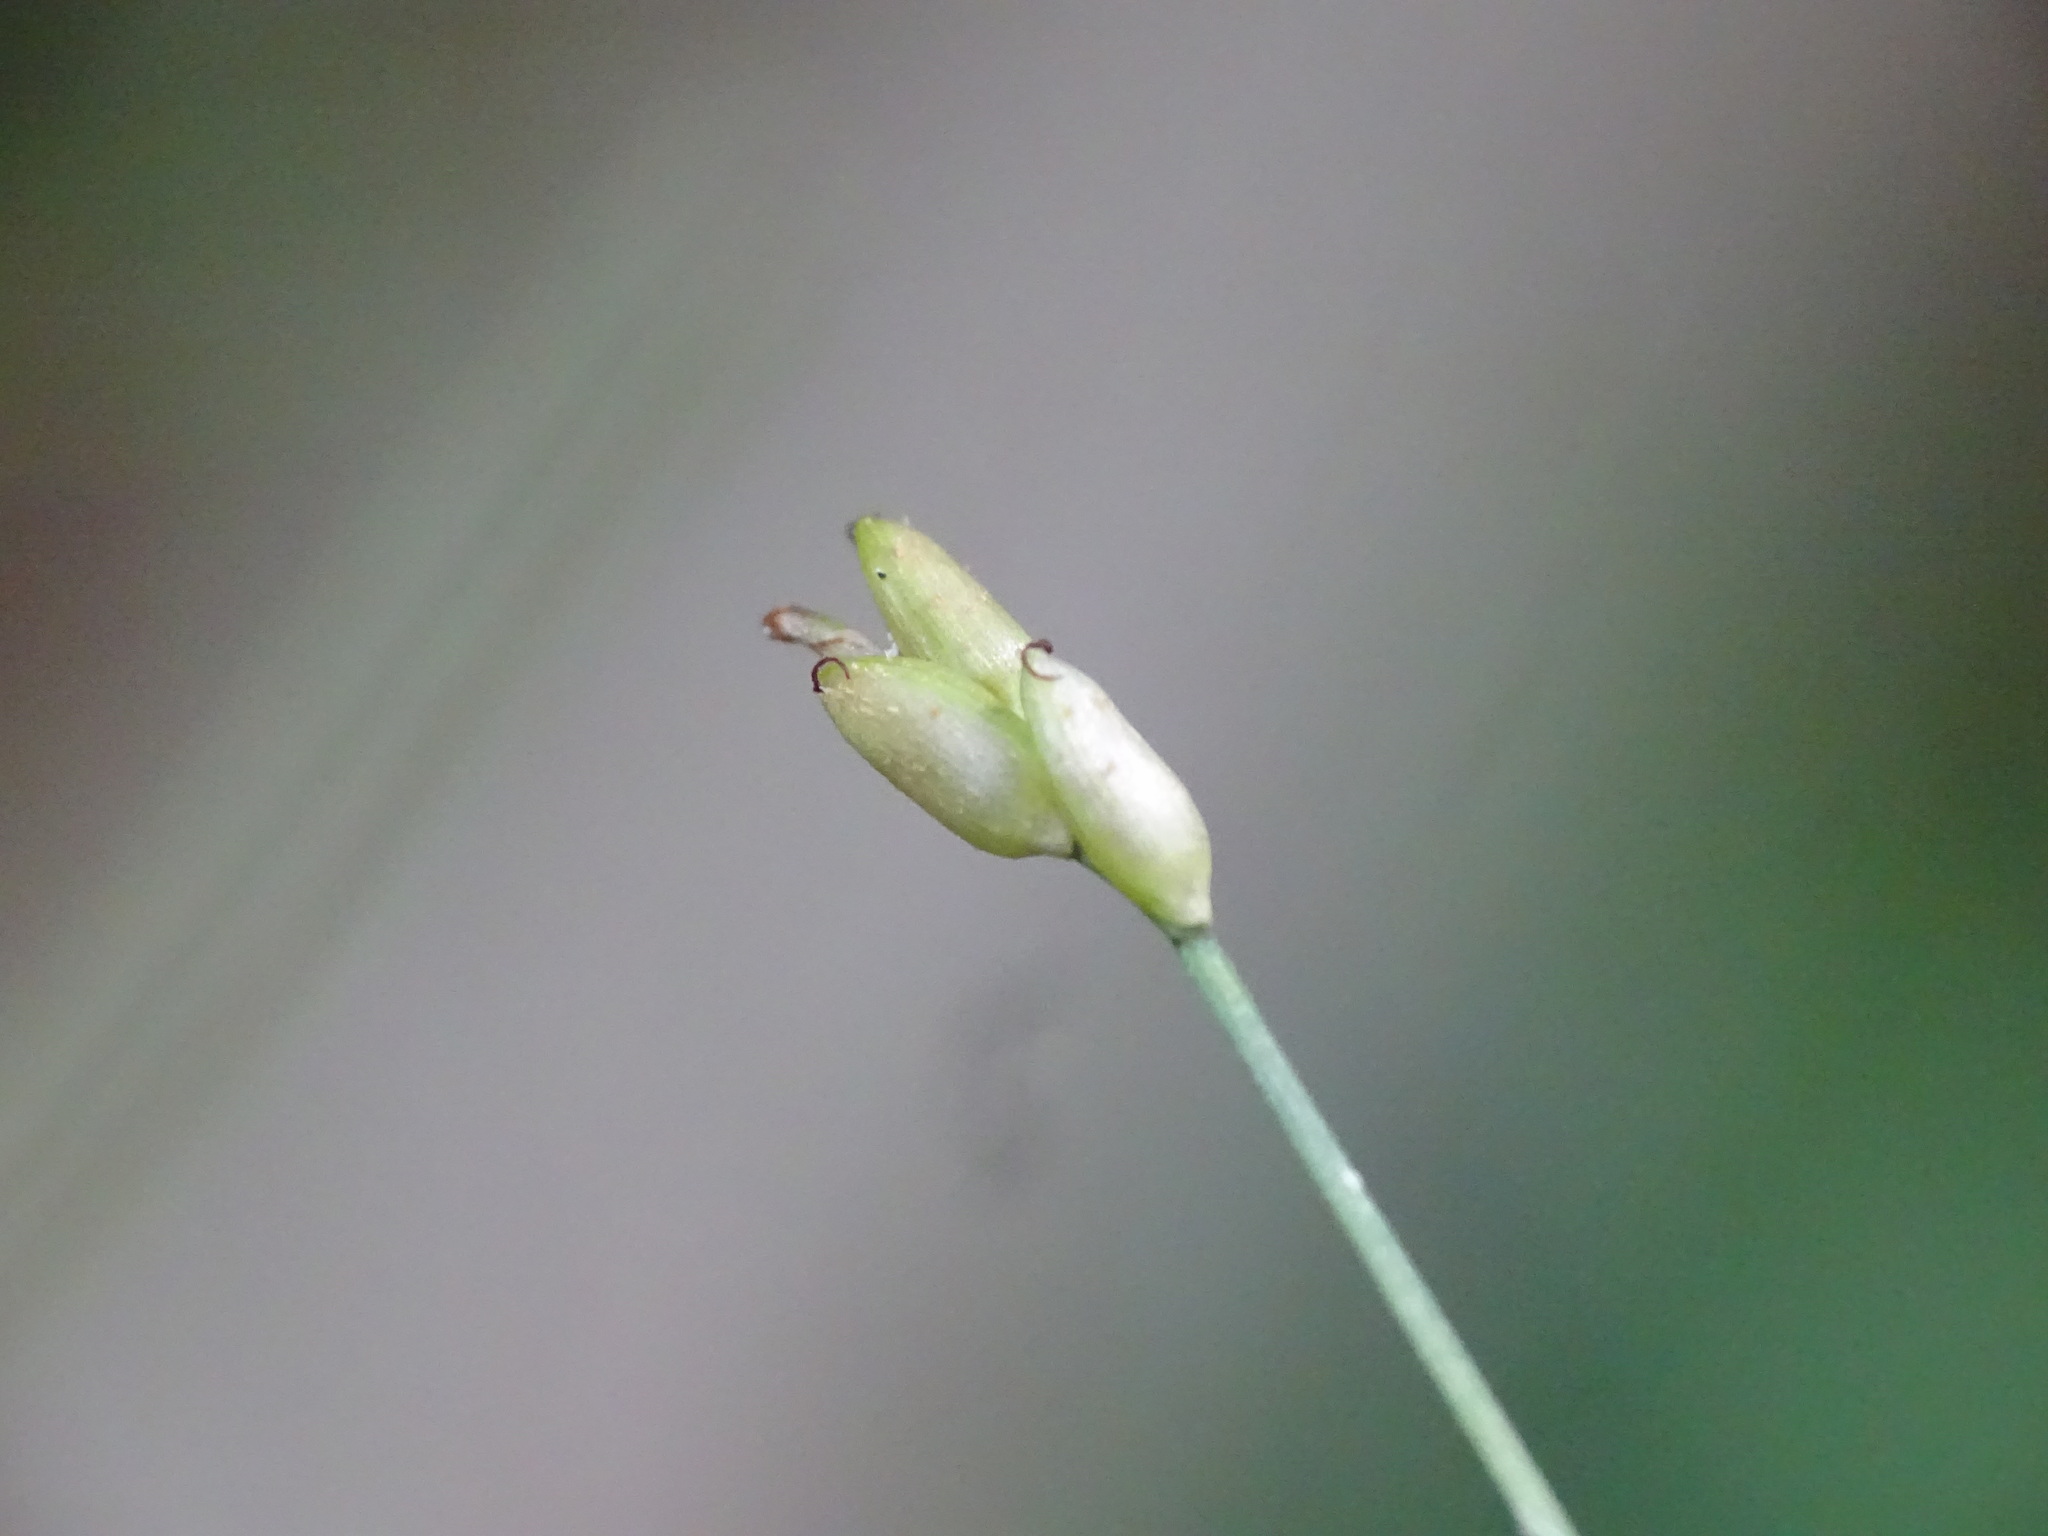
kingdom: Plantae
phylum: Tracheophyta
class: Liliopsida
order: Poales
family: Cyperaceae
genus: Carex
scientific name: Carex leptalea
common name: Bristly-stalked sedge
